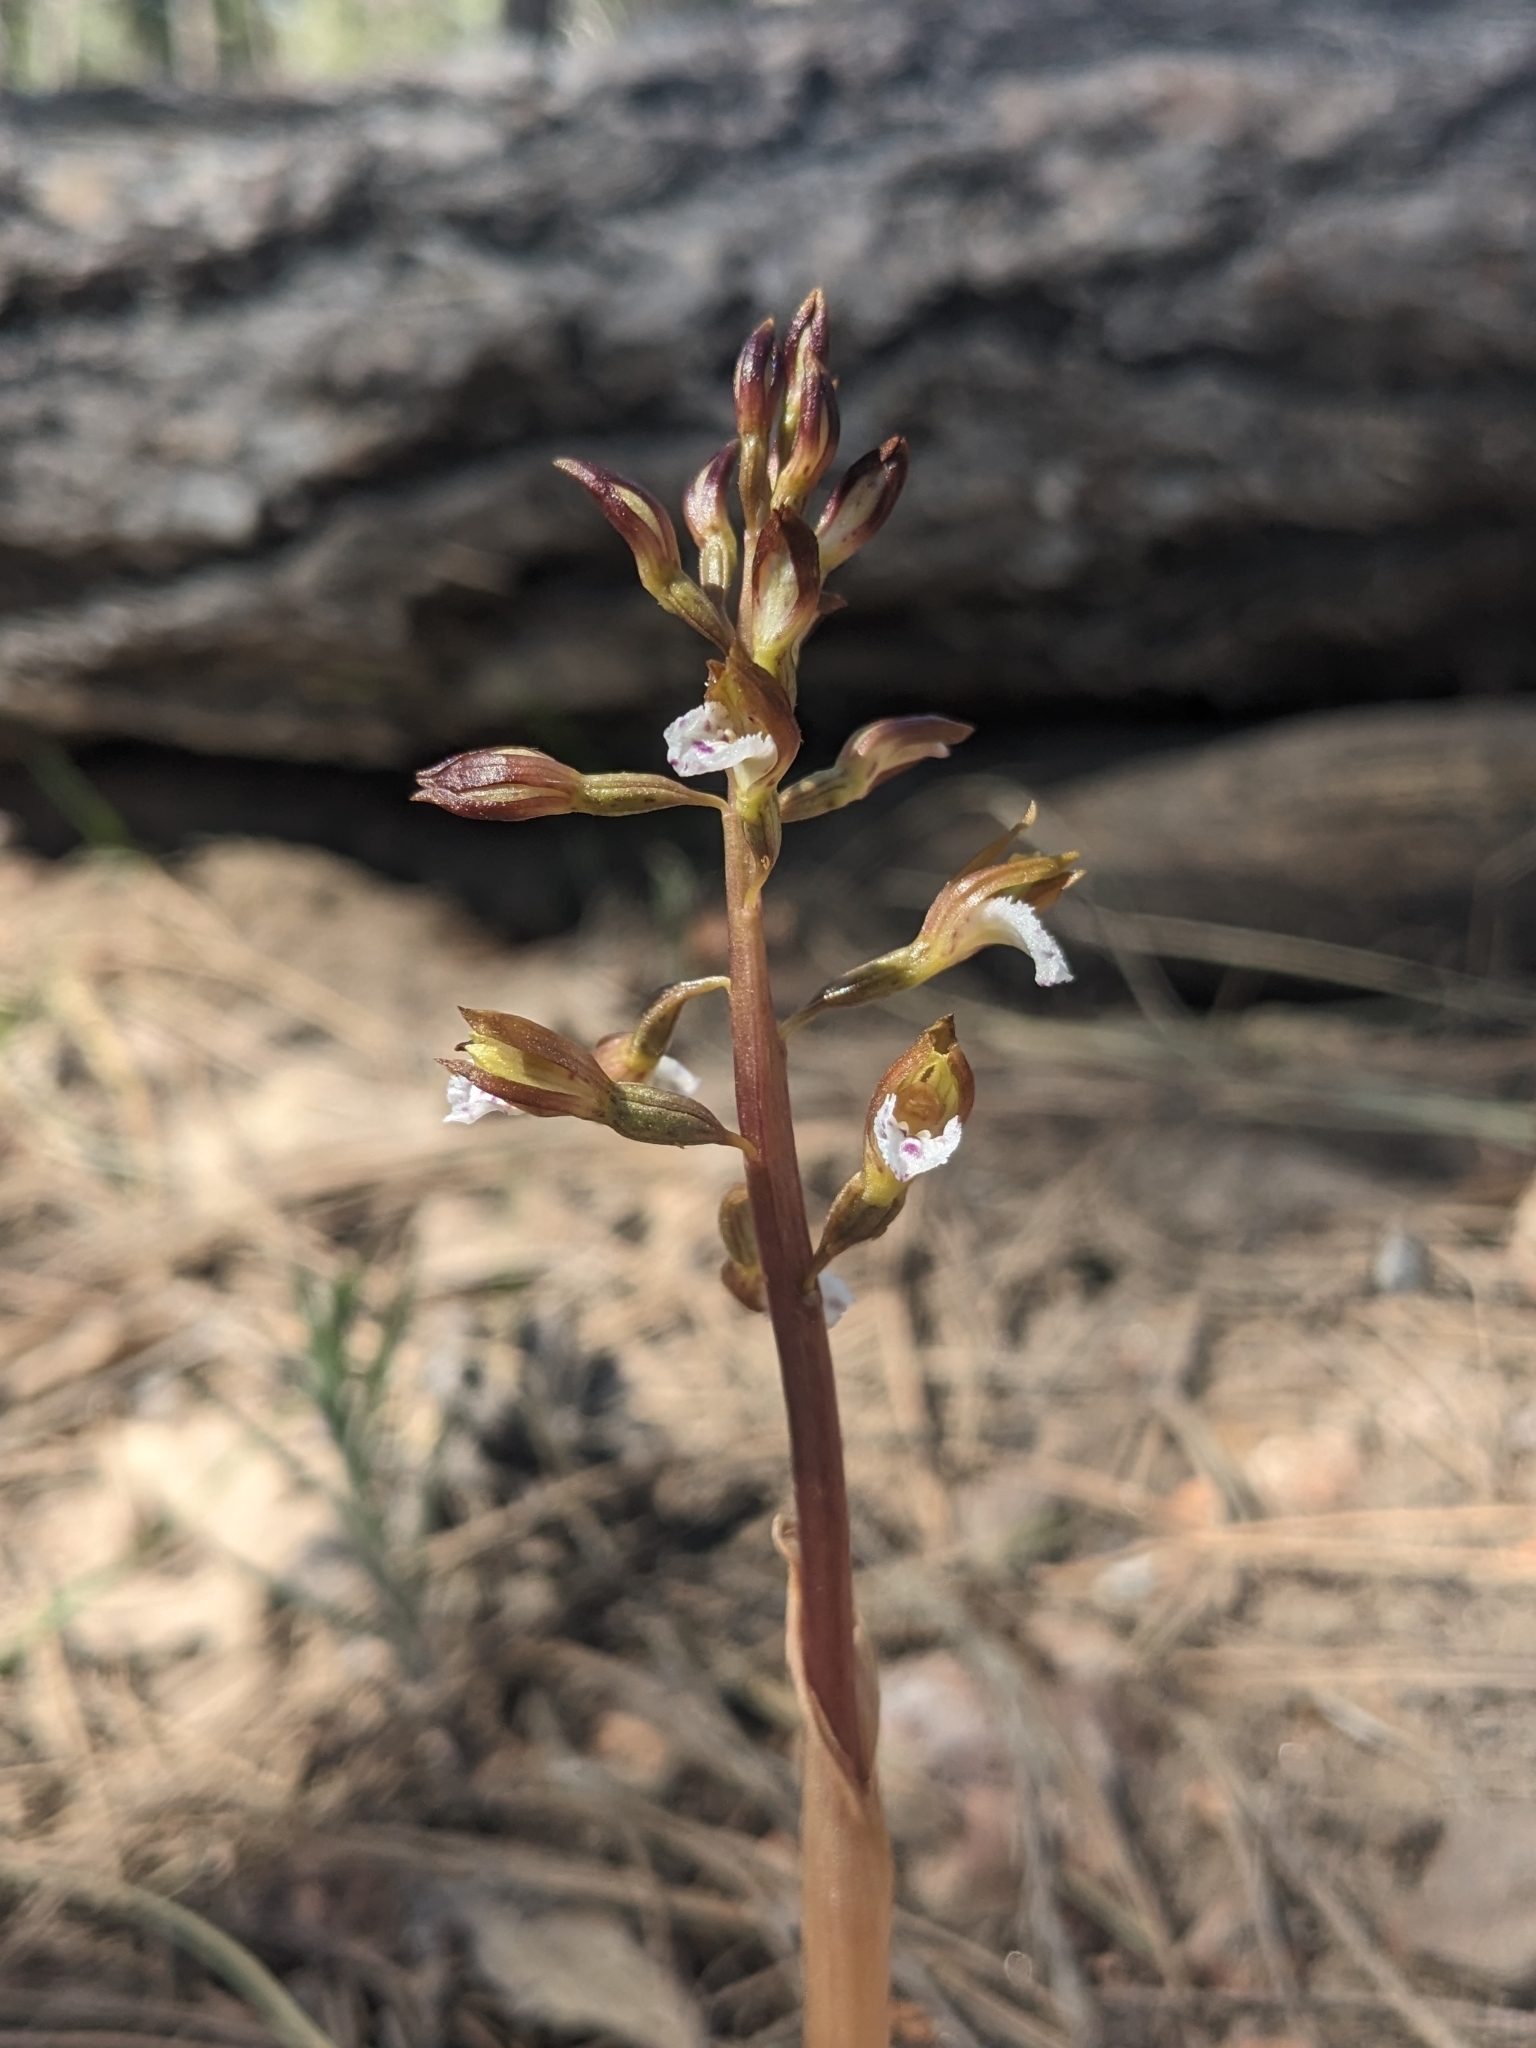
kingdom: Plantae
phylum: Tracheophyta
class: Liliopsida
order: Asparagales
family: Orchidaceae
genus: Corallorhiza
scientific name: Corallorhiza wisteriana
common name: Spring coralroot
